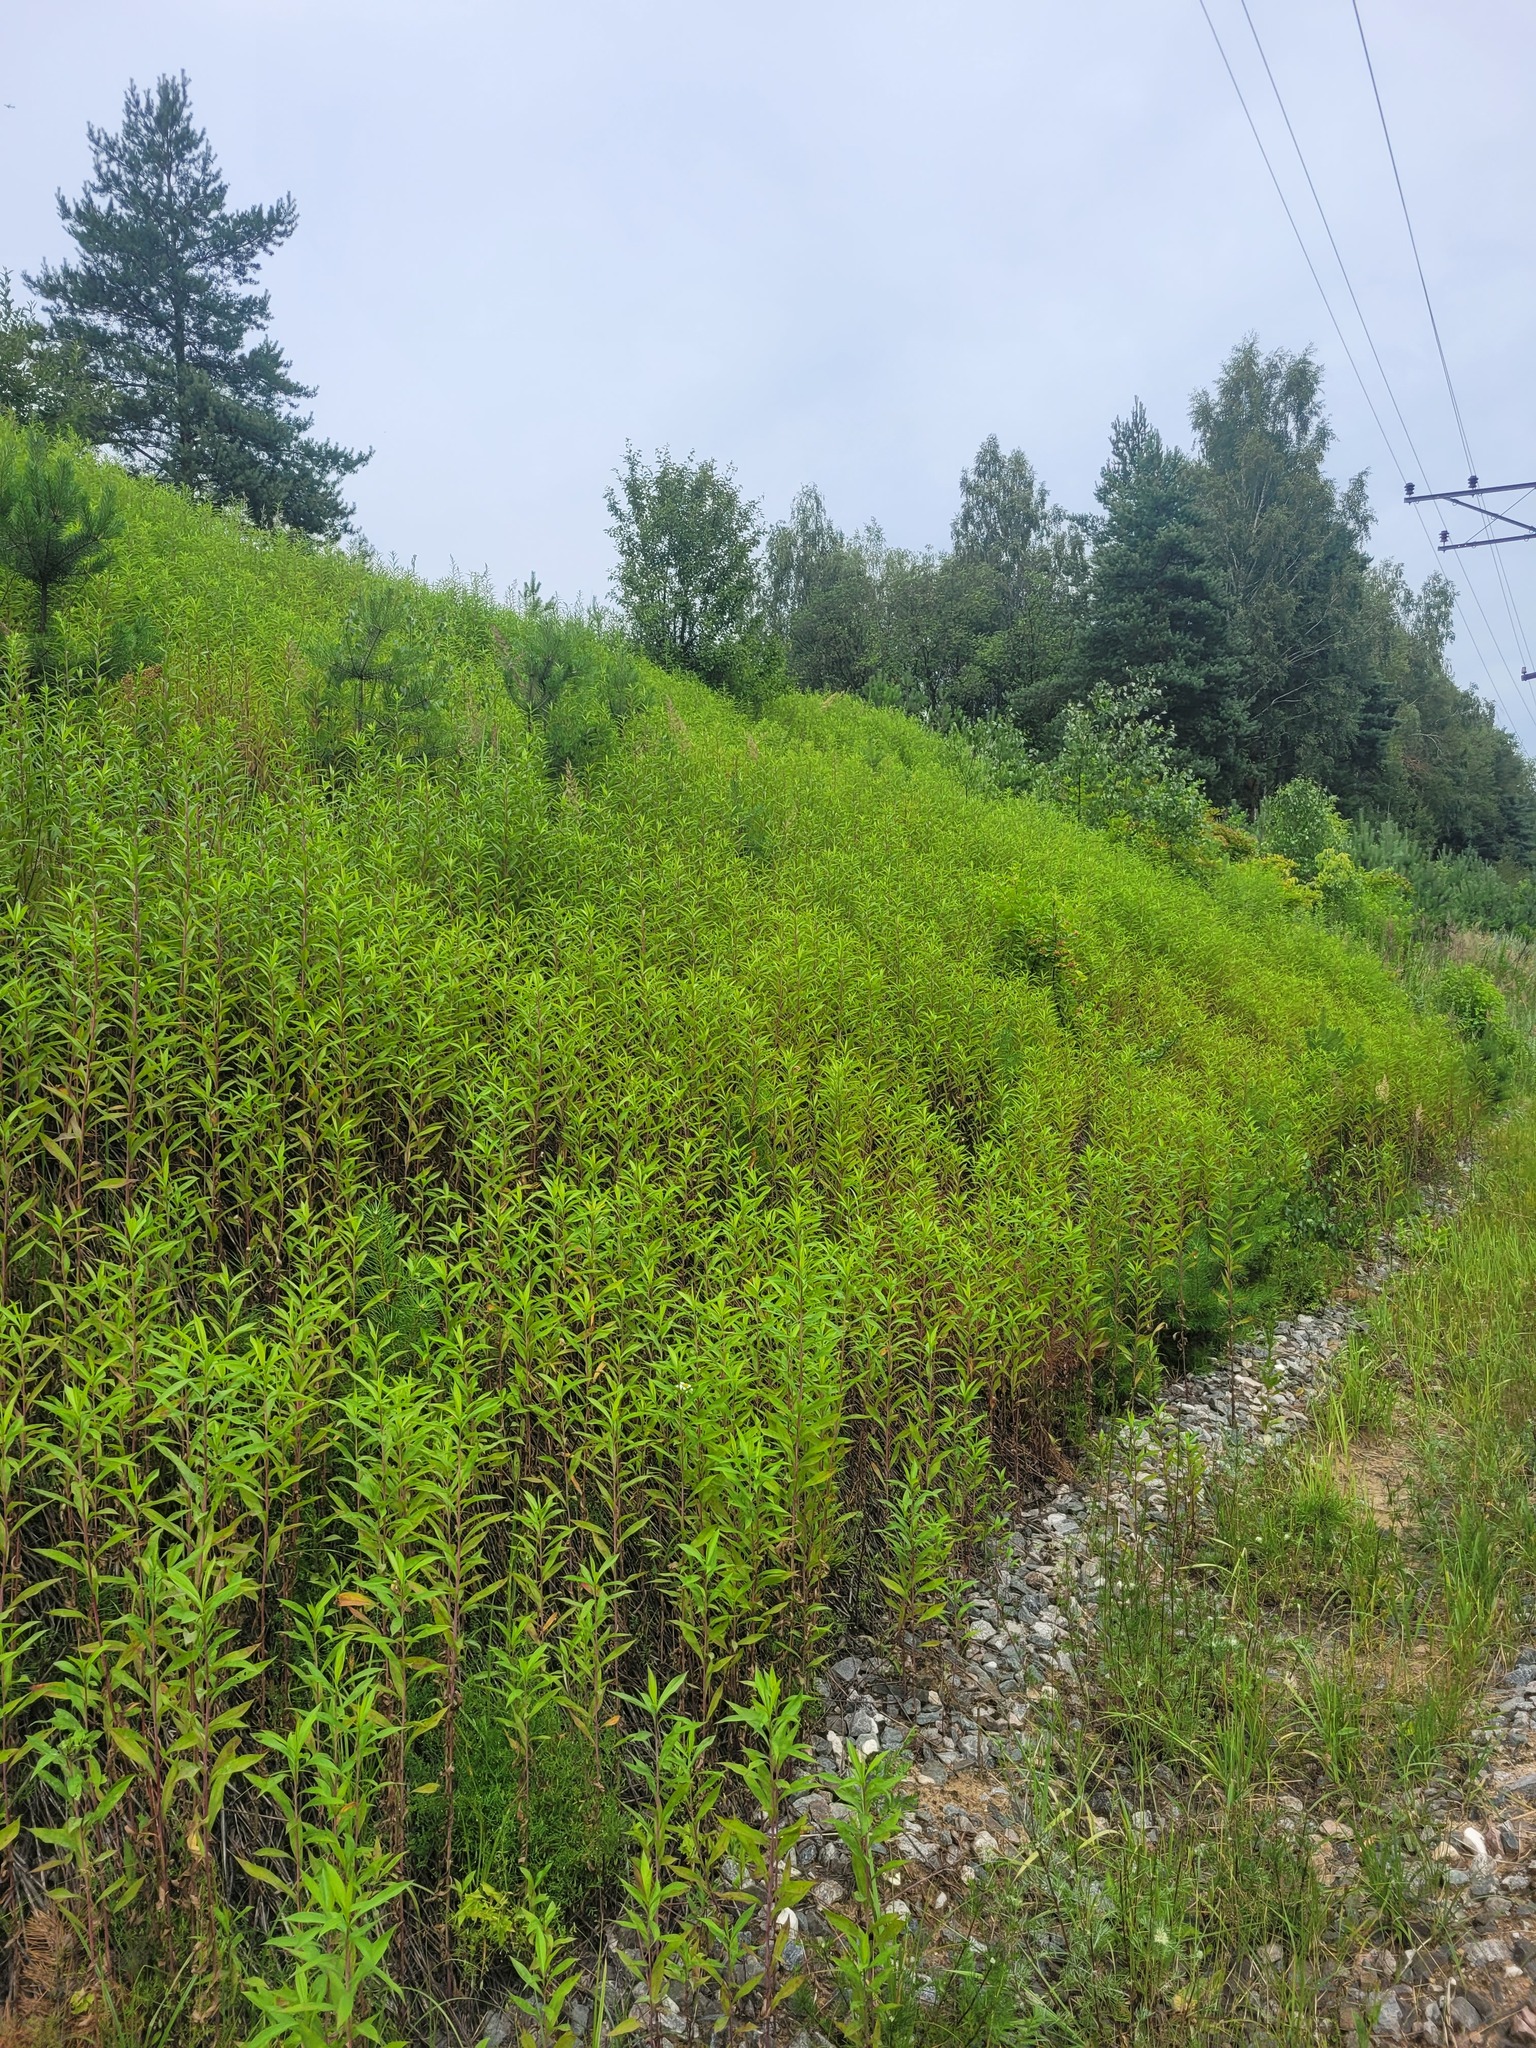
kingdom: Plantae
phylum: Tracheophyta
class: Magnoliopsida
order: Asterales
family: Asteraceae
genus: Solidago
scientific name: Solidago gigantea
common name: Giant goldenrod
